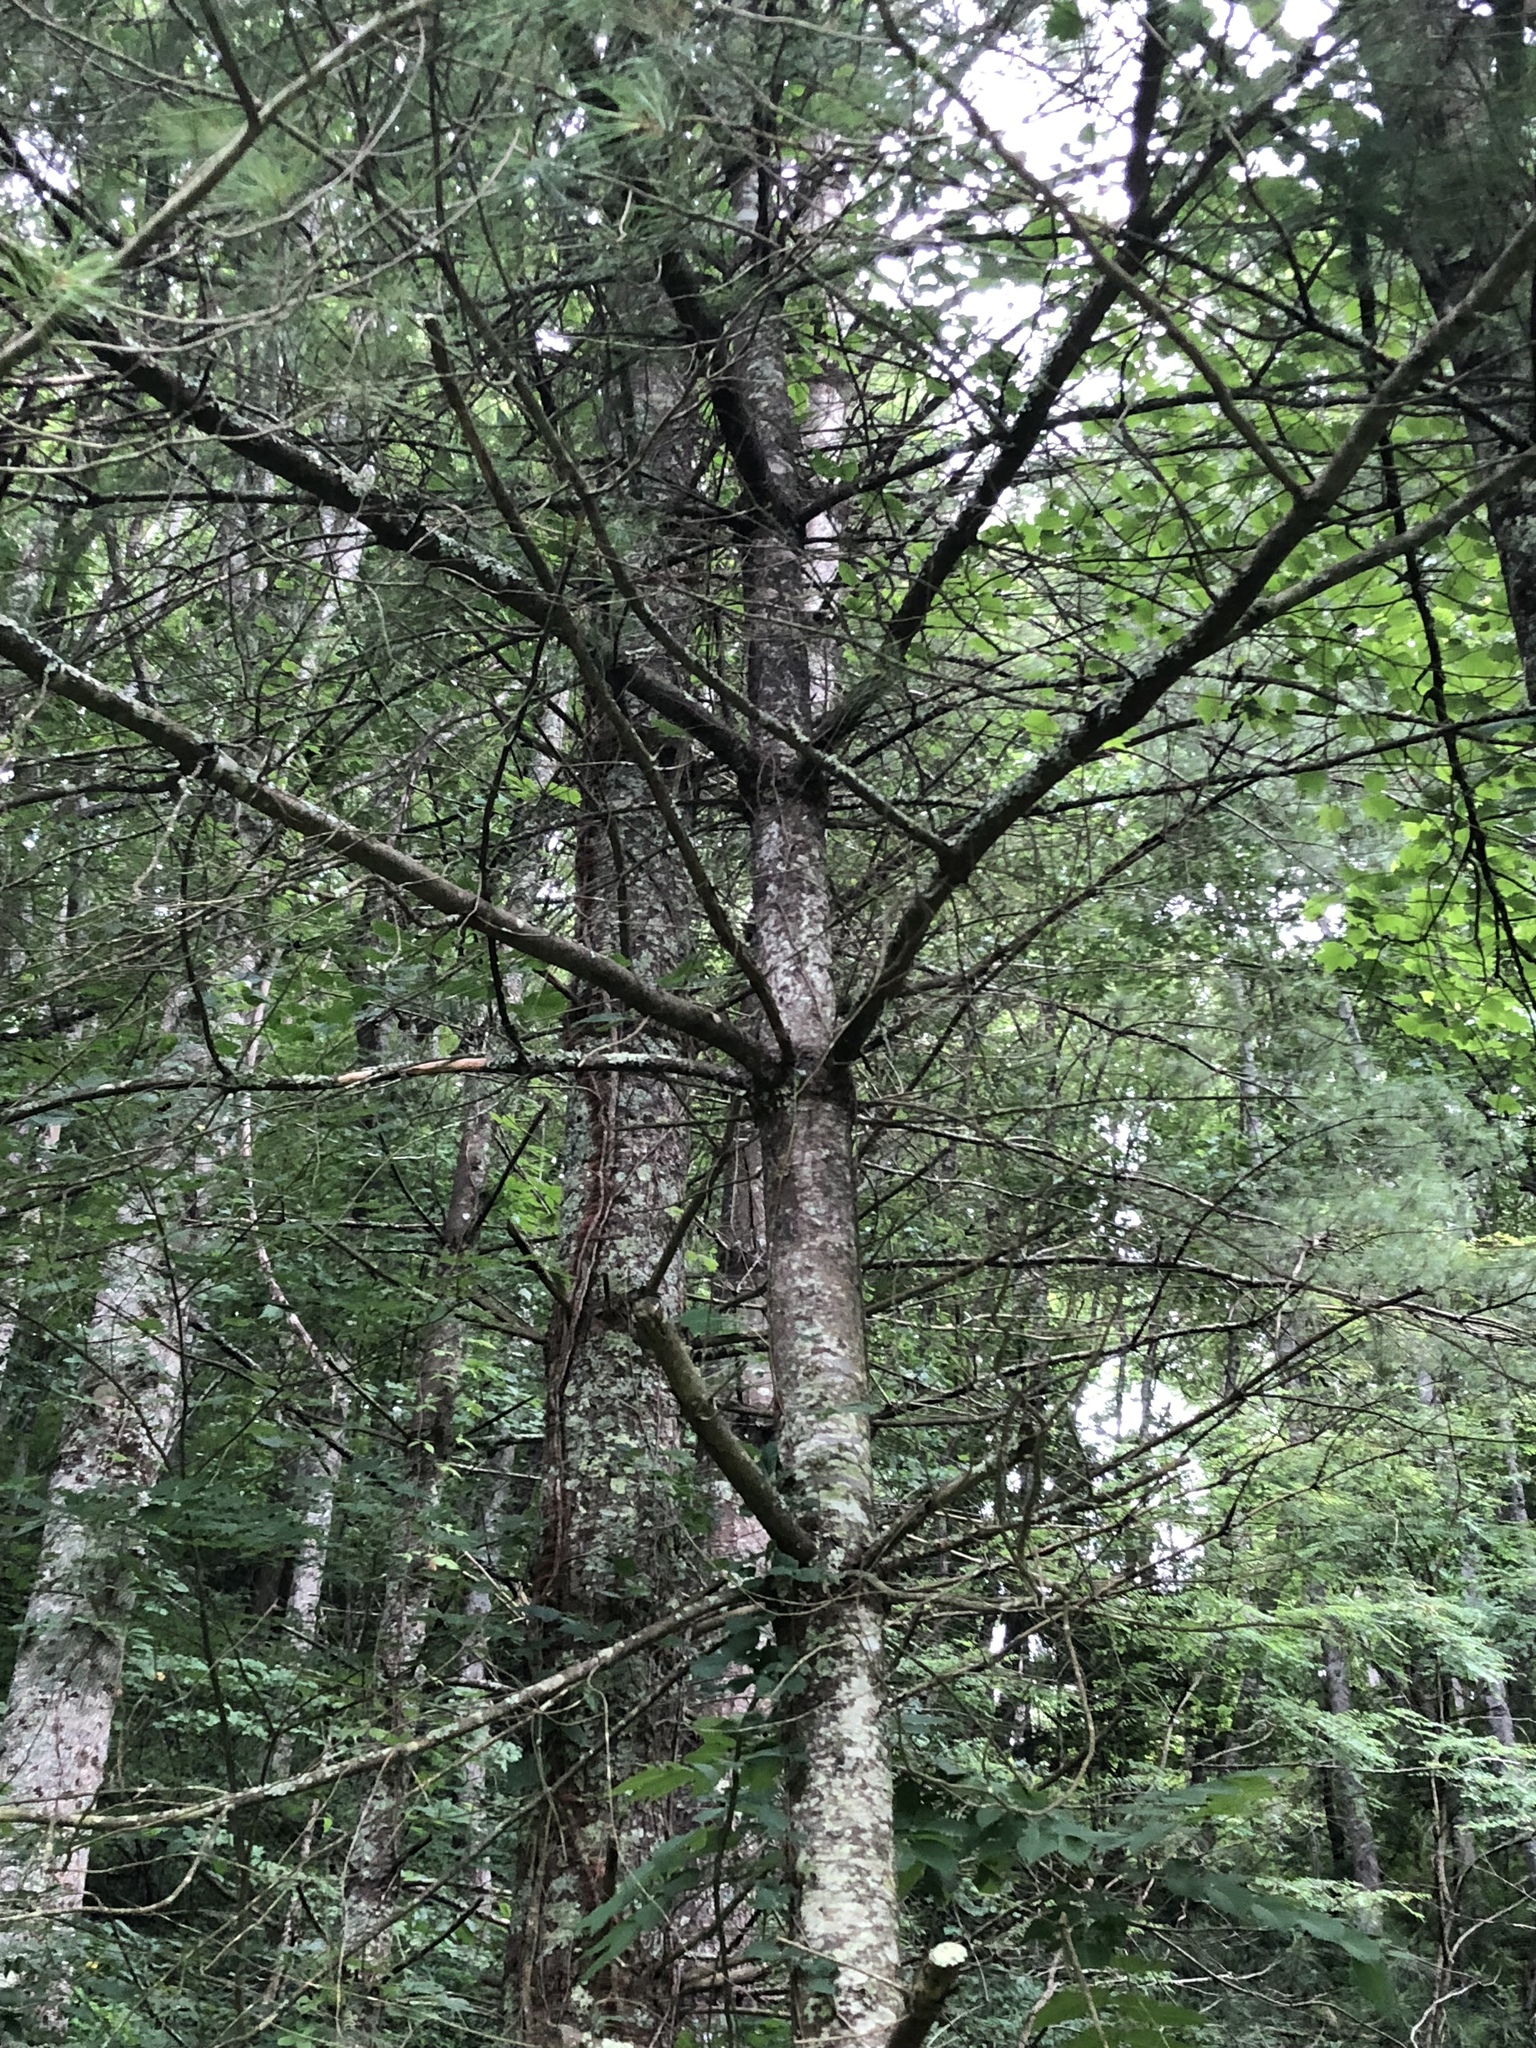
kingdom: Plantae
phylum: Tracheophyta
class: Pinopsida
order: Pinales
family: Pinaceae
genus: Pinus
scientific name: Pinus strobus
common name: Weymouth pine
